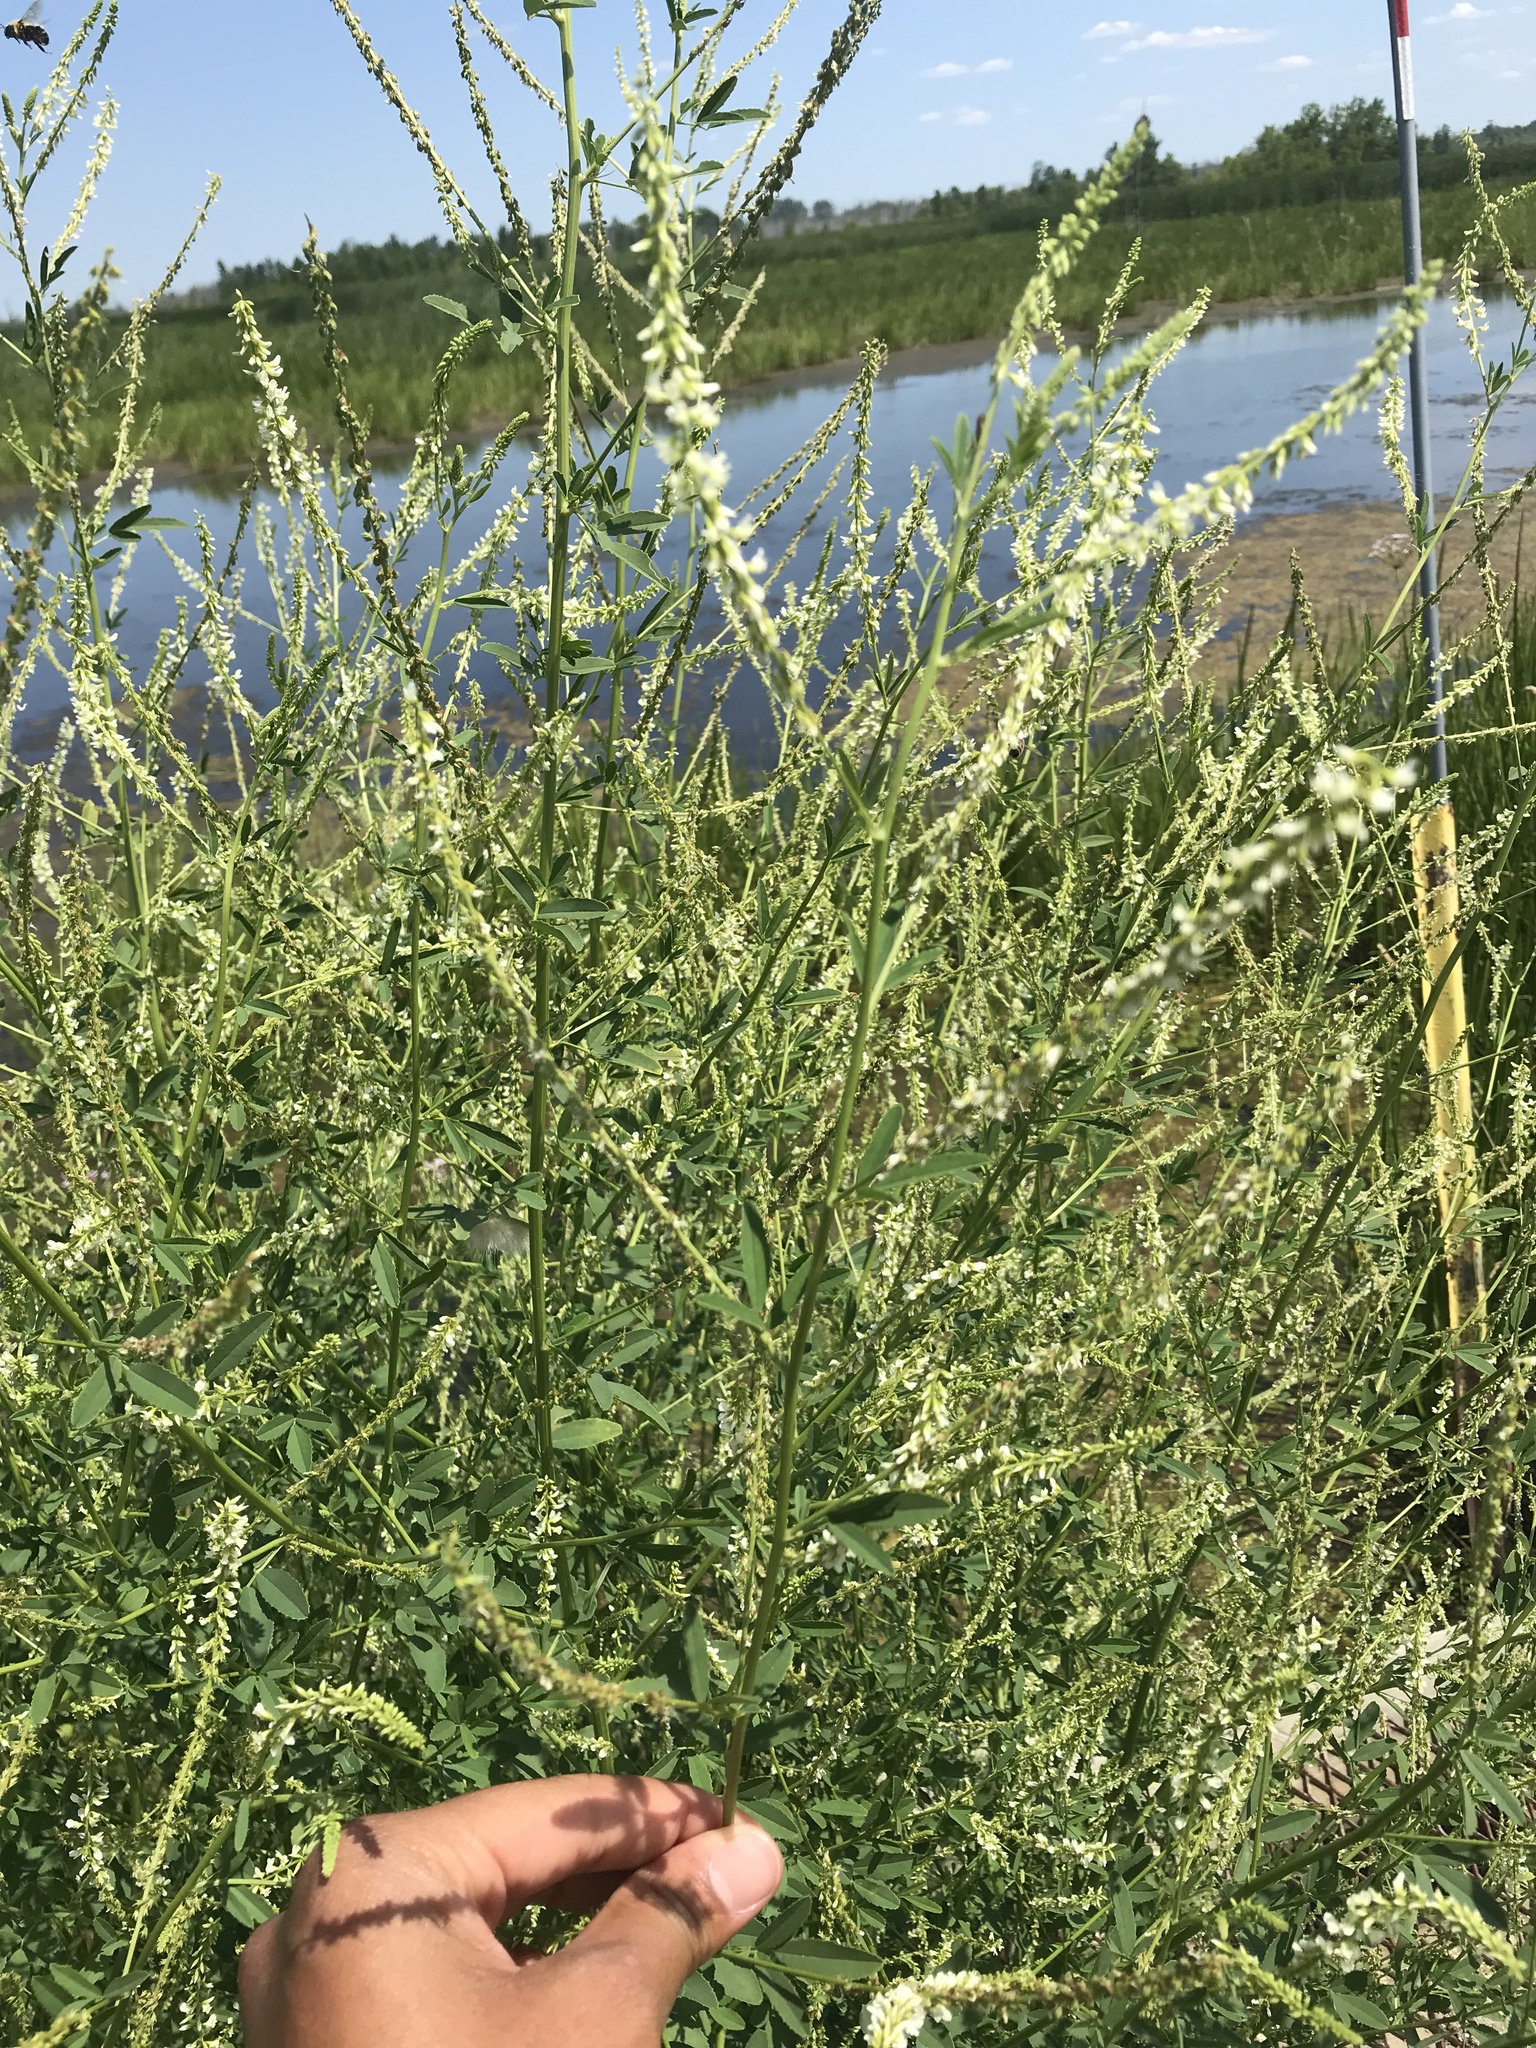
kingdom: Plantae
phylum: Tracheophyta
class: Magnoliopsida
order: Fabales
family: Fabaceae
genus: Melilotus
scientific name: Melilotus albus
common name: White melilot
